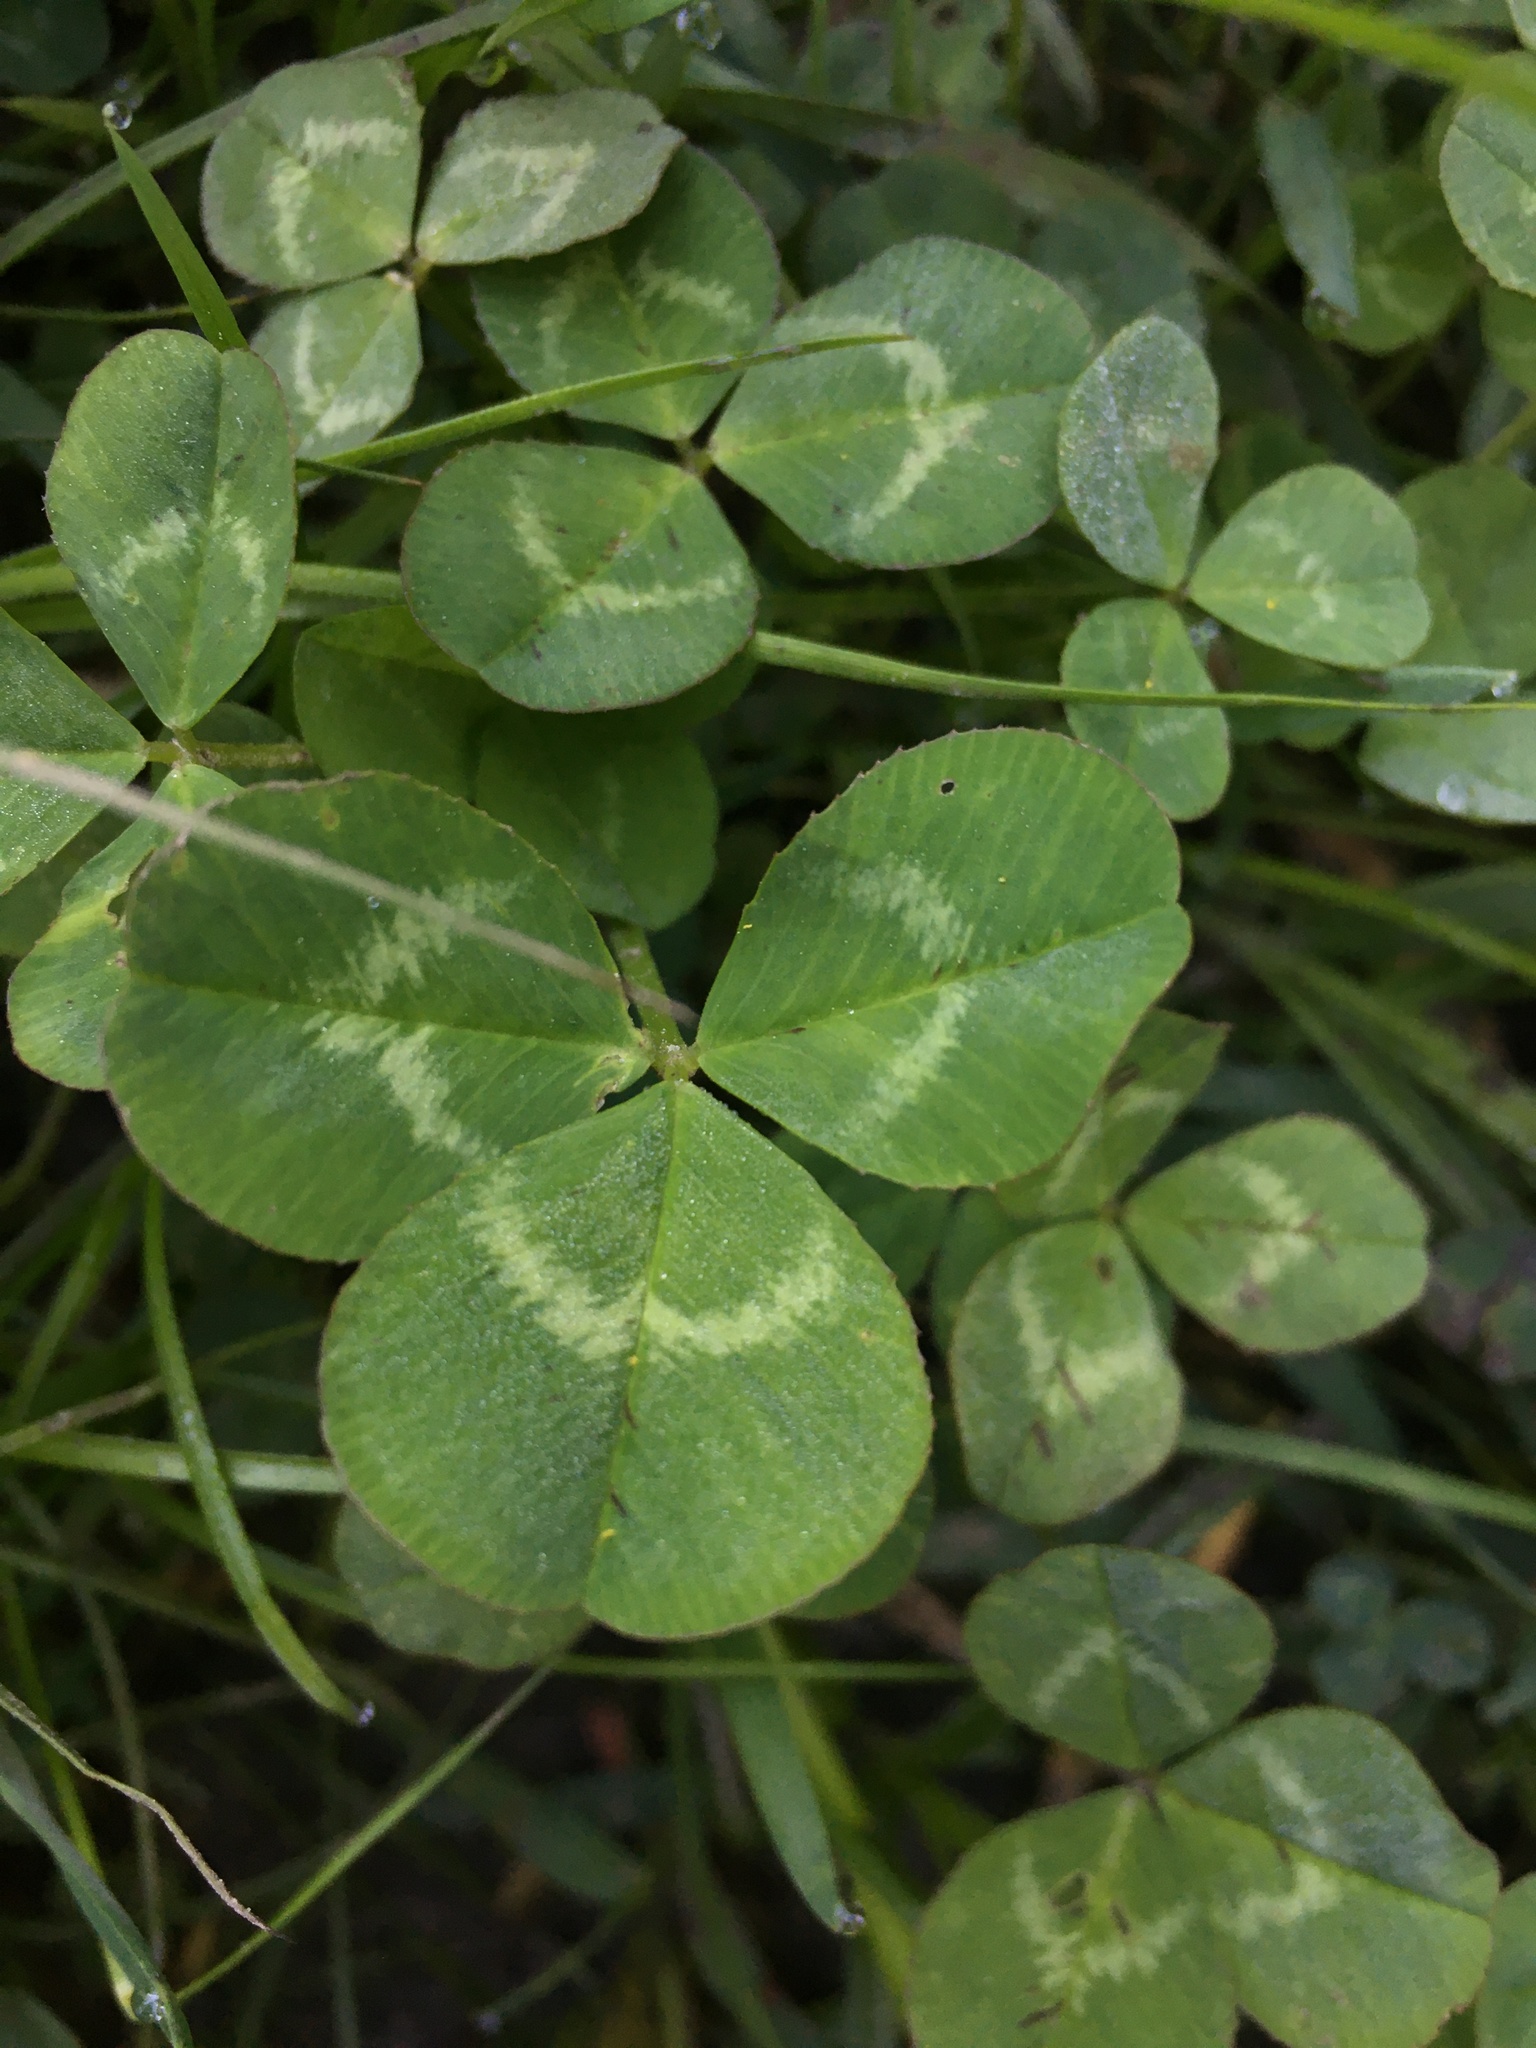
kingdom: Plantae
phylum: Tracheophyta
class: Magnoliopsida
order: Fabales
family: Fabaceae
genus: Trifolium
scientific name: Trifolium repens
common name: White clover
